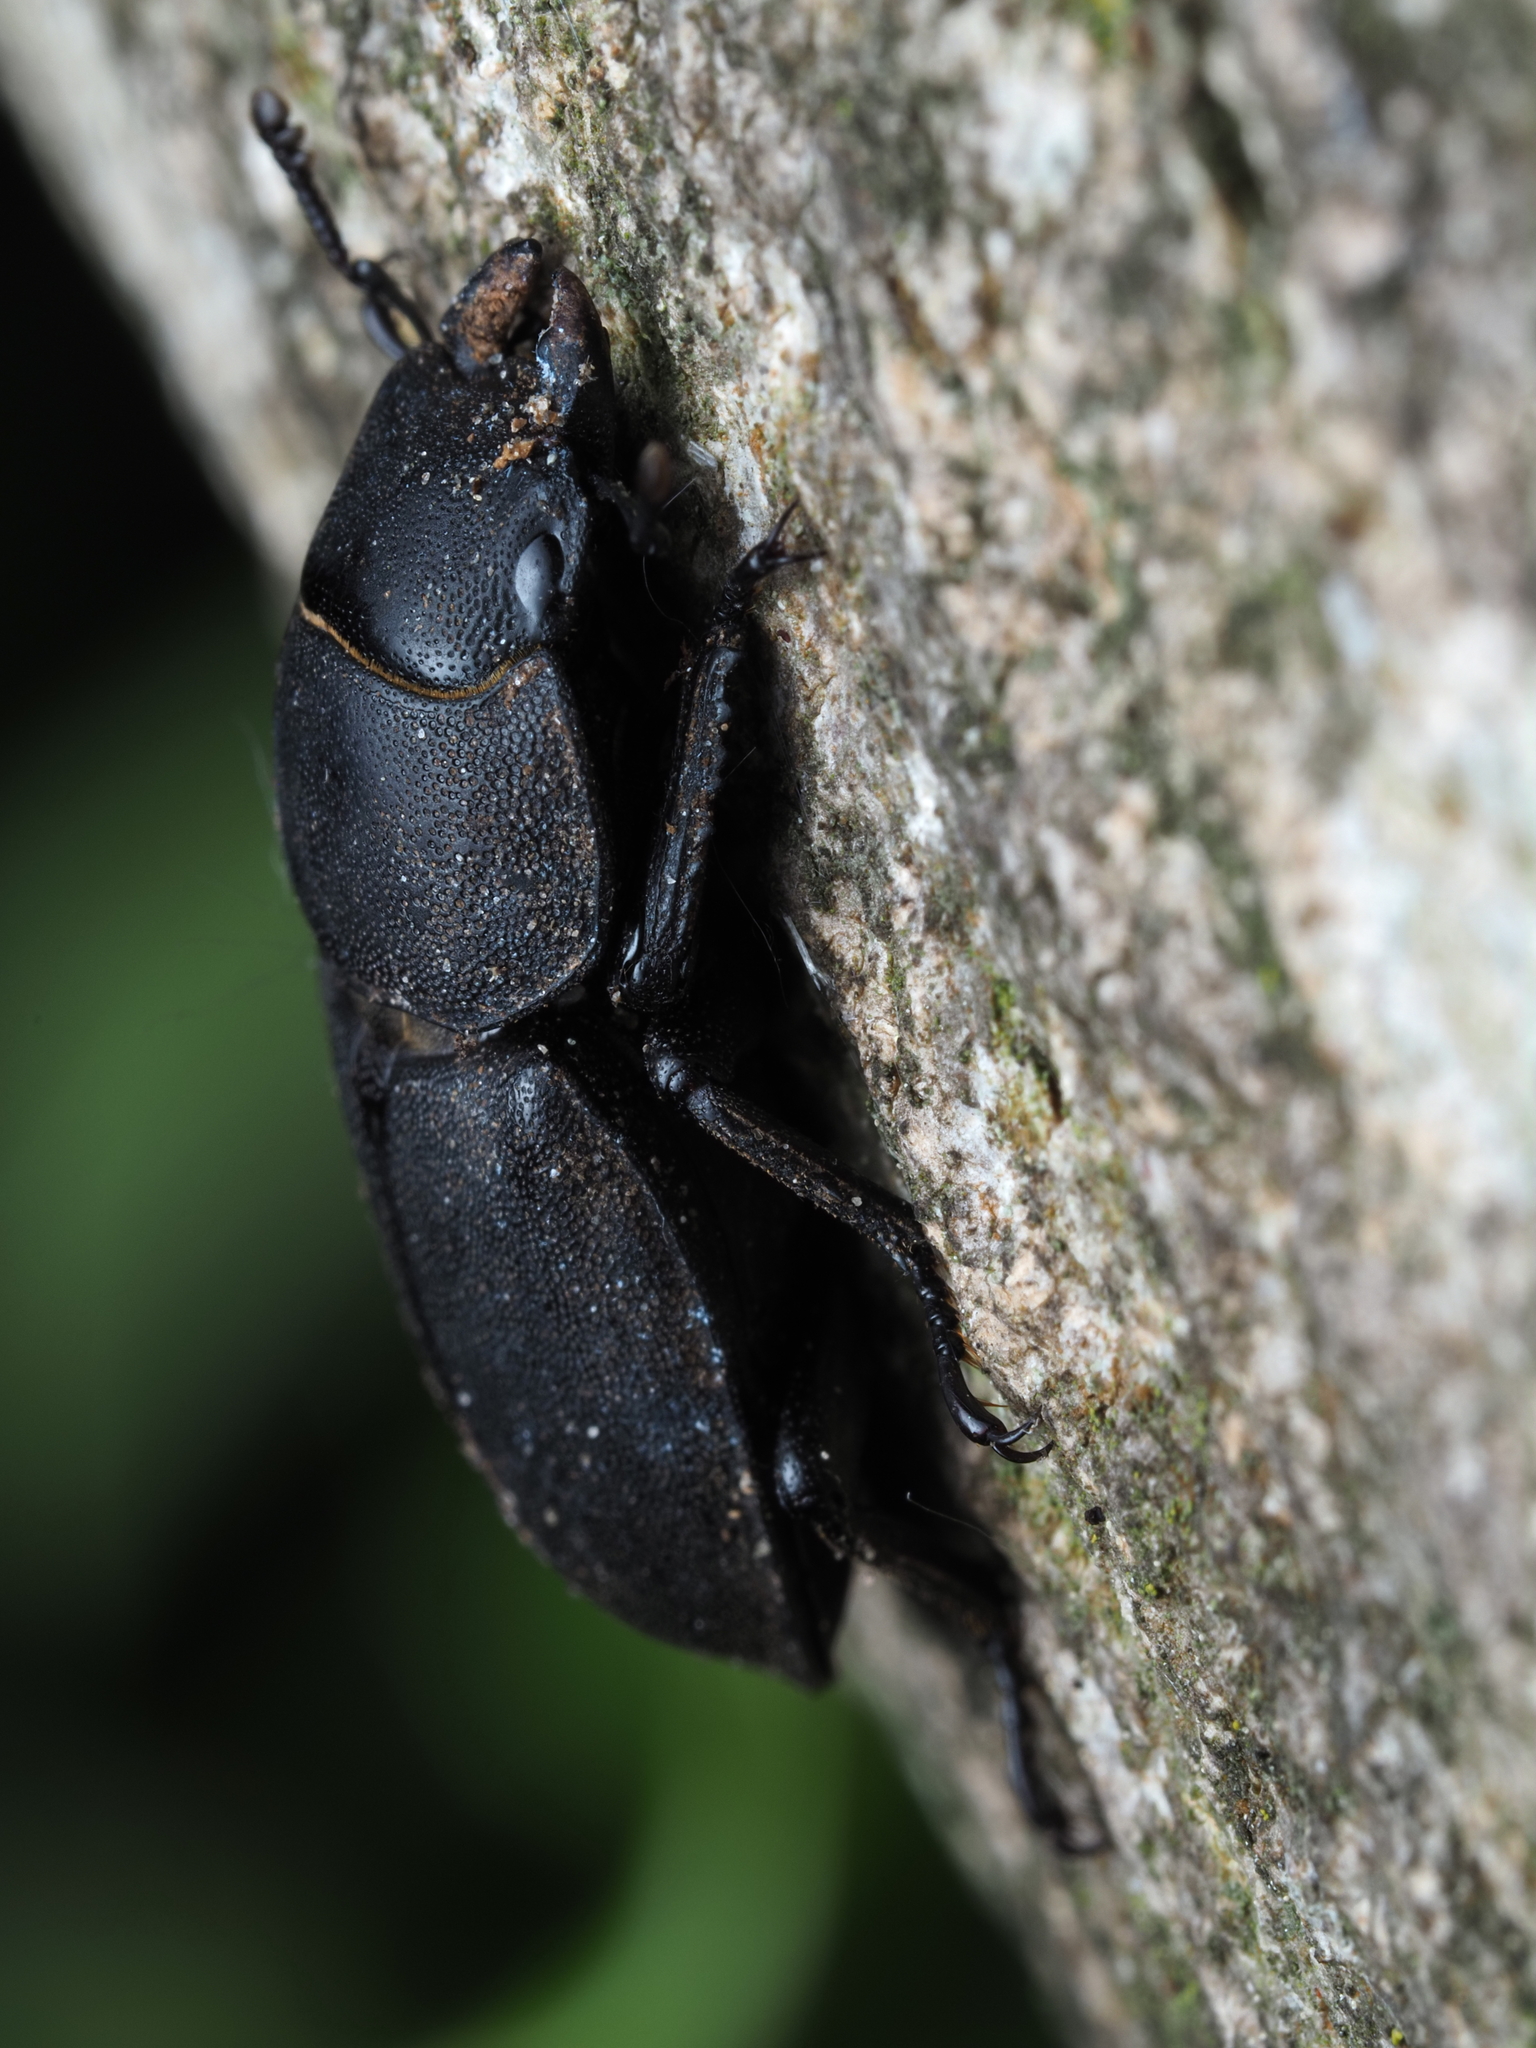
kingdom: Animalia
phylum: Arthropoda
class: Insecta
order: Coleoptera
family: Lucanidae
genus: Dorcus
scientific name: Dorcus parallelipipedus
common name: Lesser stag beetle
